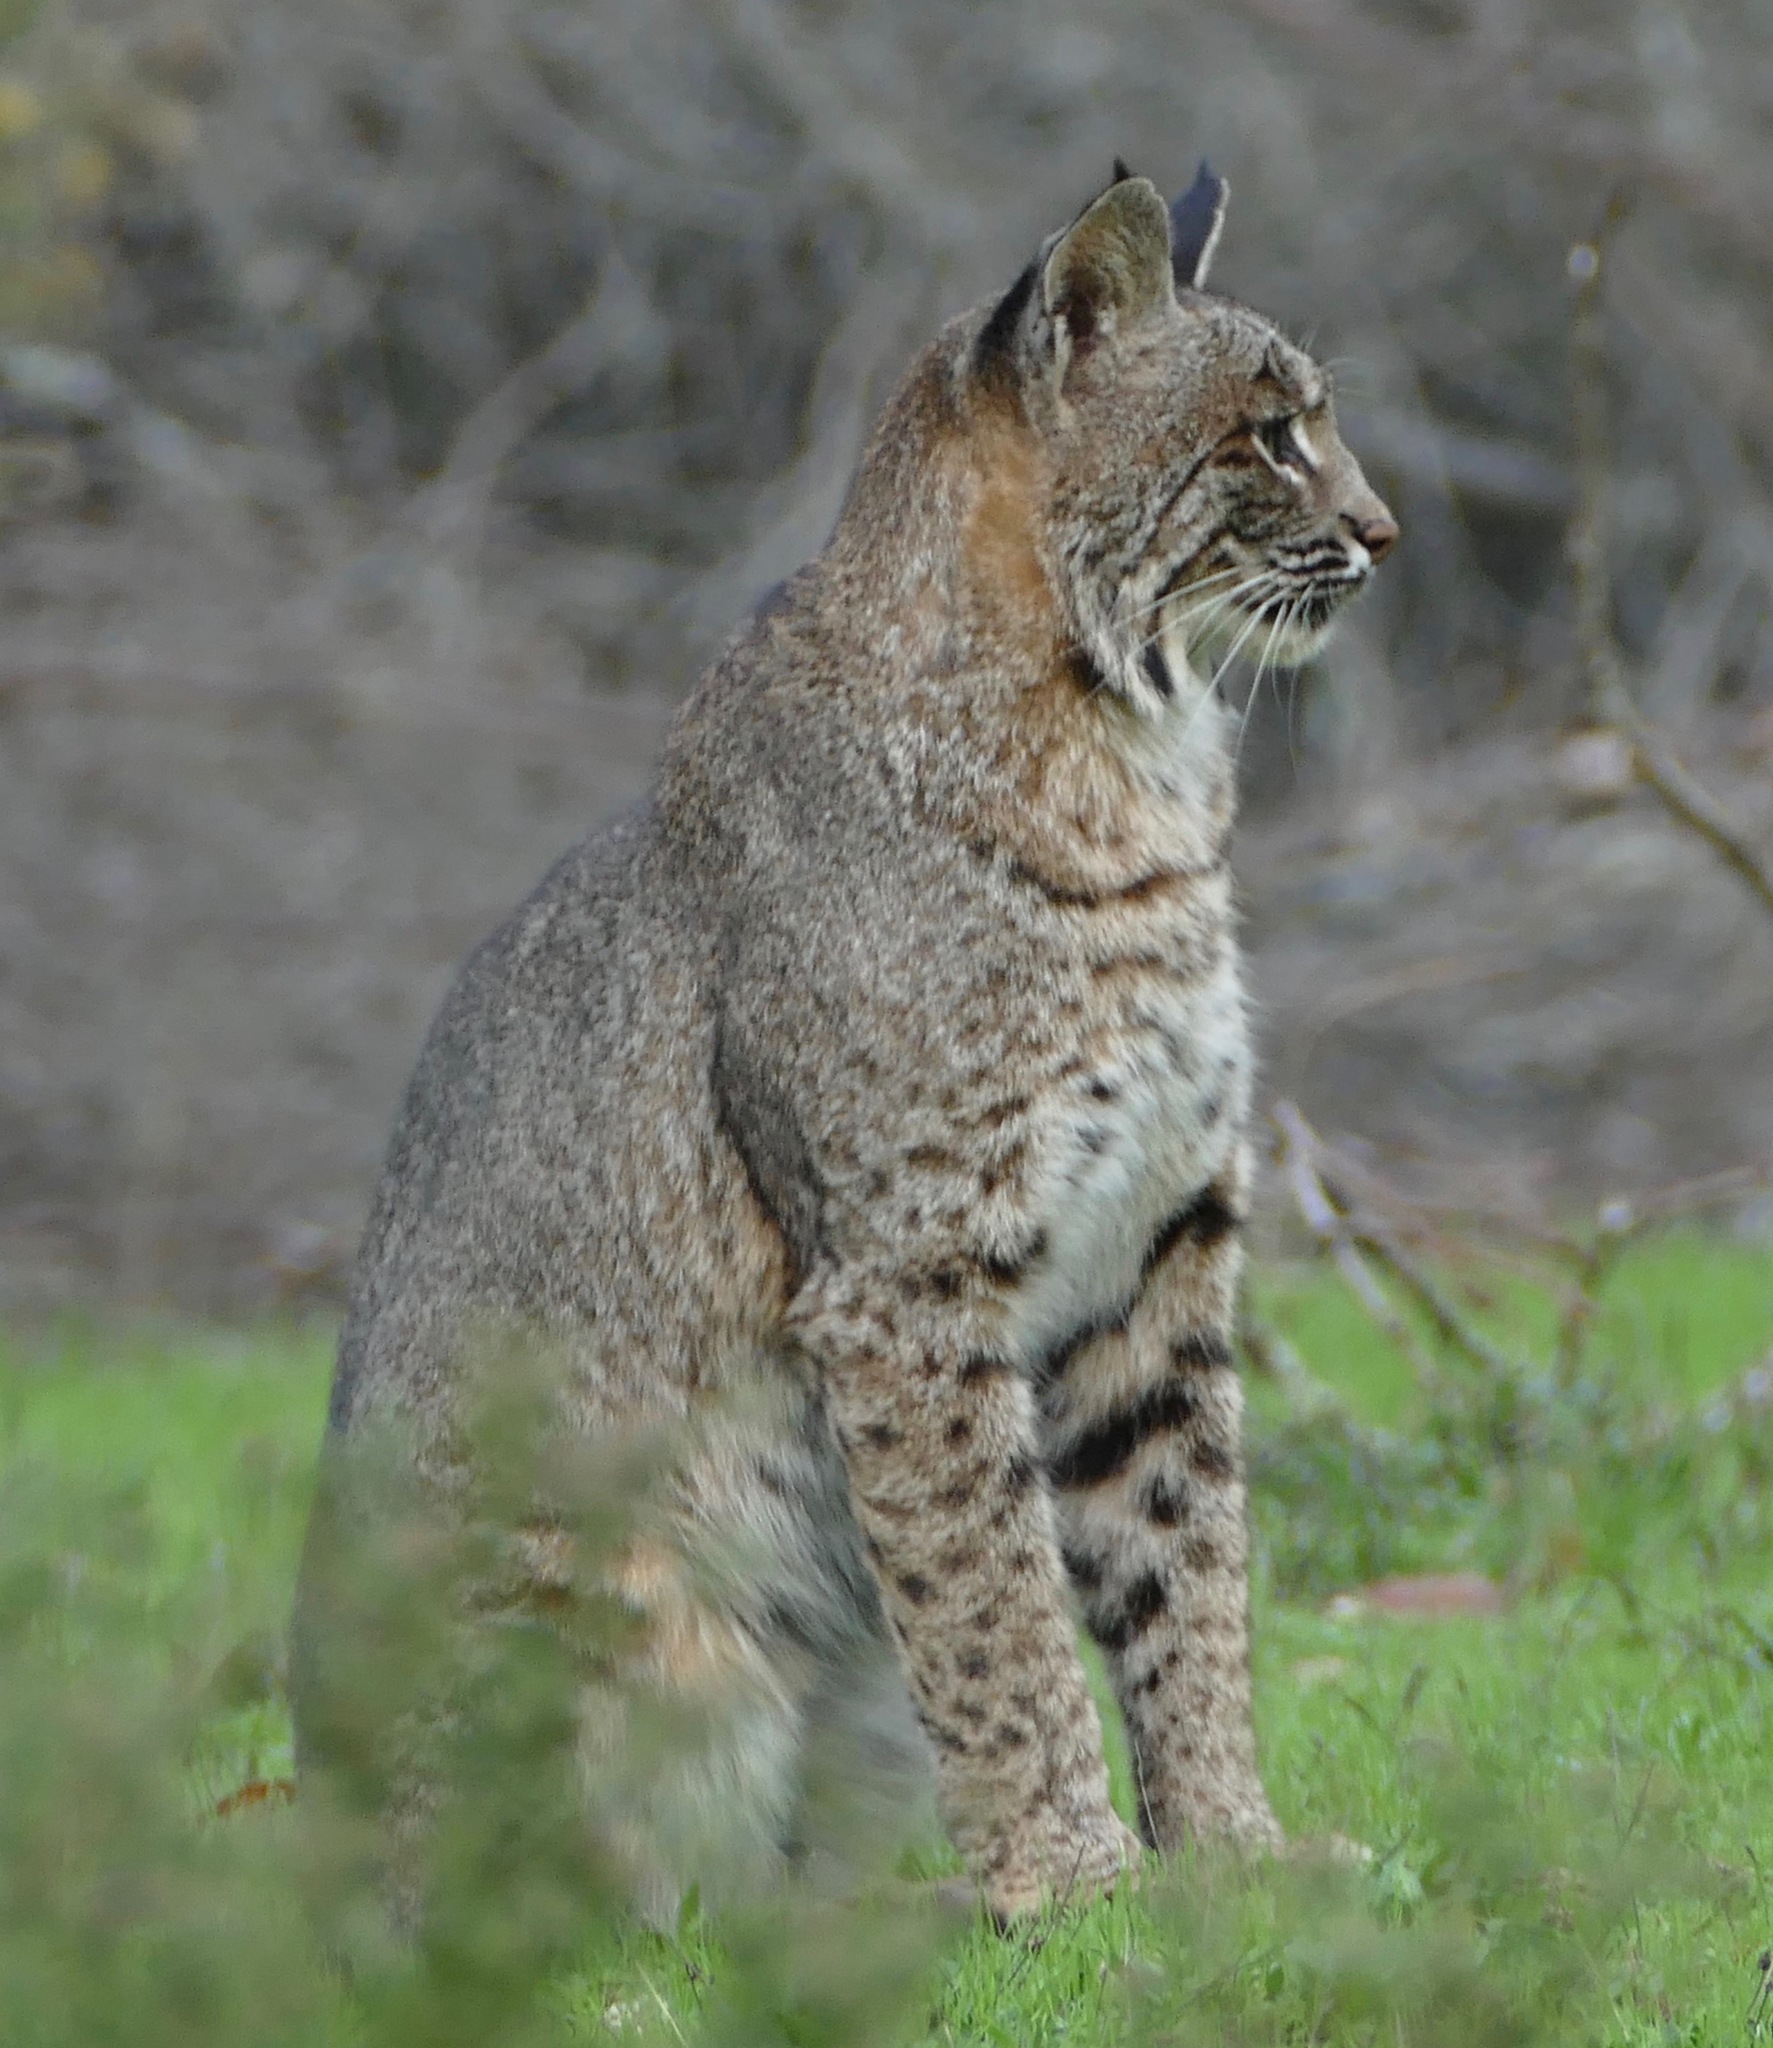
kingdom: Animalia
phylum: Chordata
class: Mammalia
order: Carnivora
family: Felidae
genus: Lynx
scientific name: Lynx rufus
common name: Bobcat
